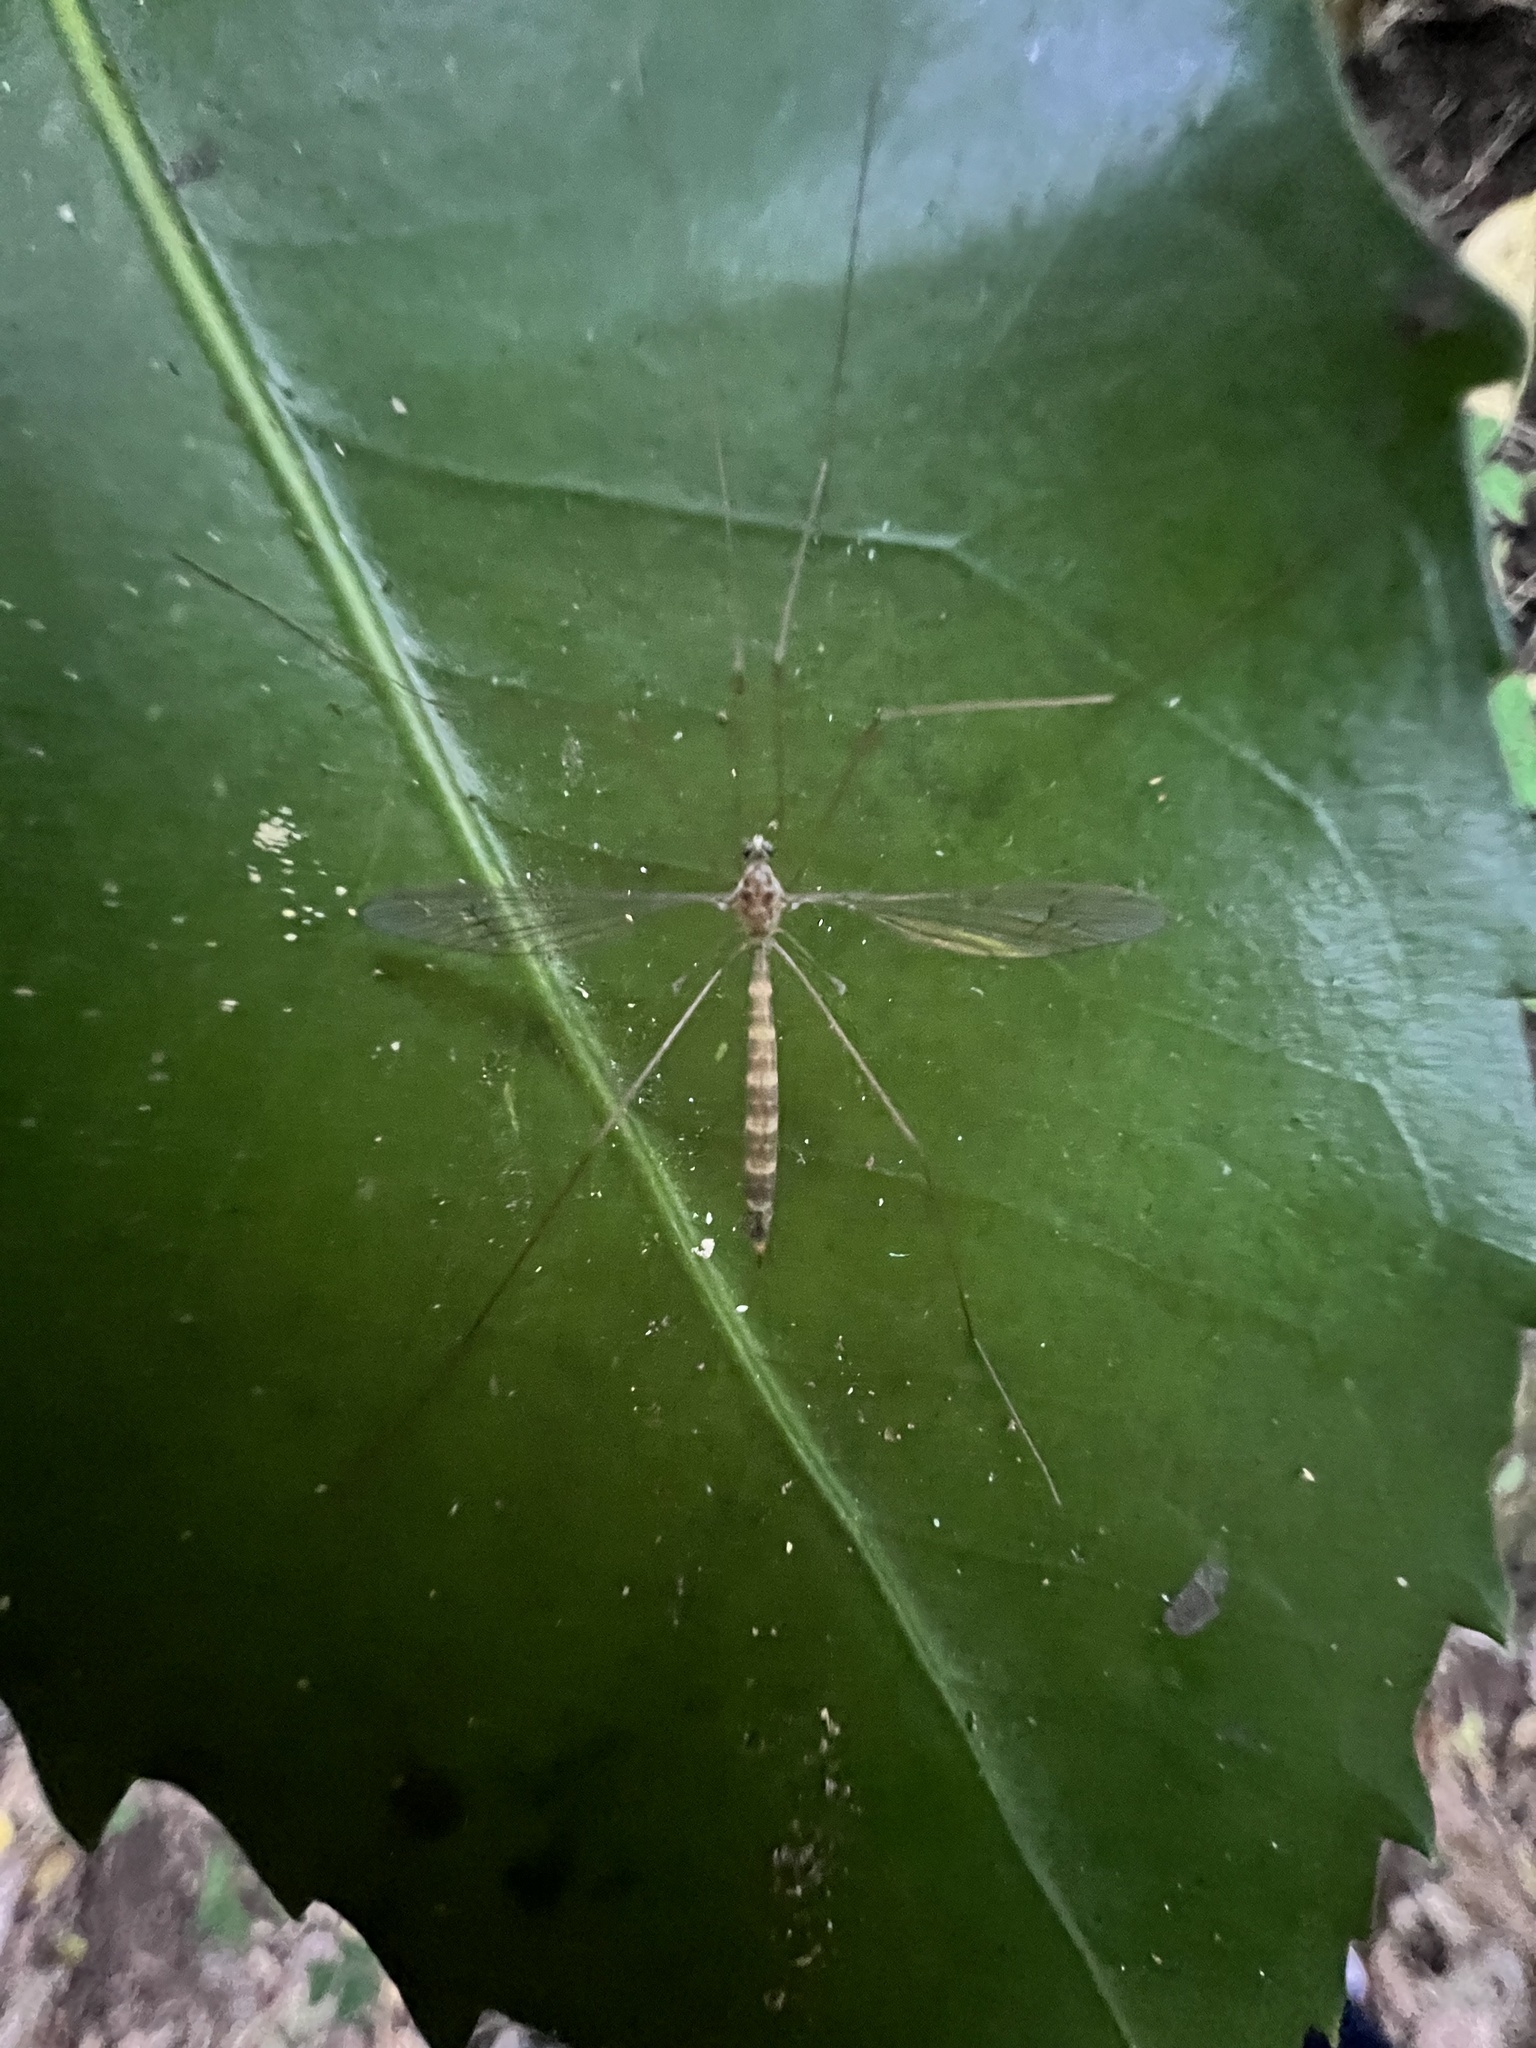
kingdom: Animalia
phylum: Arthropoda
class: Insecta
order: Diptera
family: Limoniidae
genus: Limnophilella
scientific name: Limnophilella delicatula
